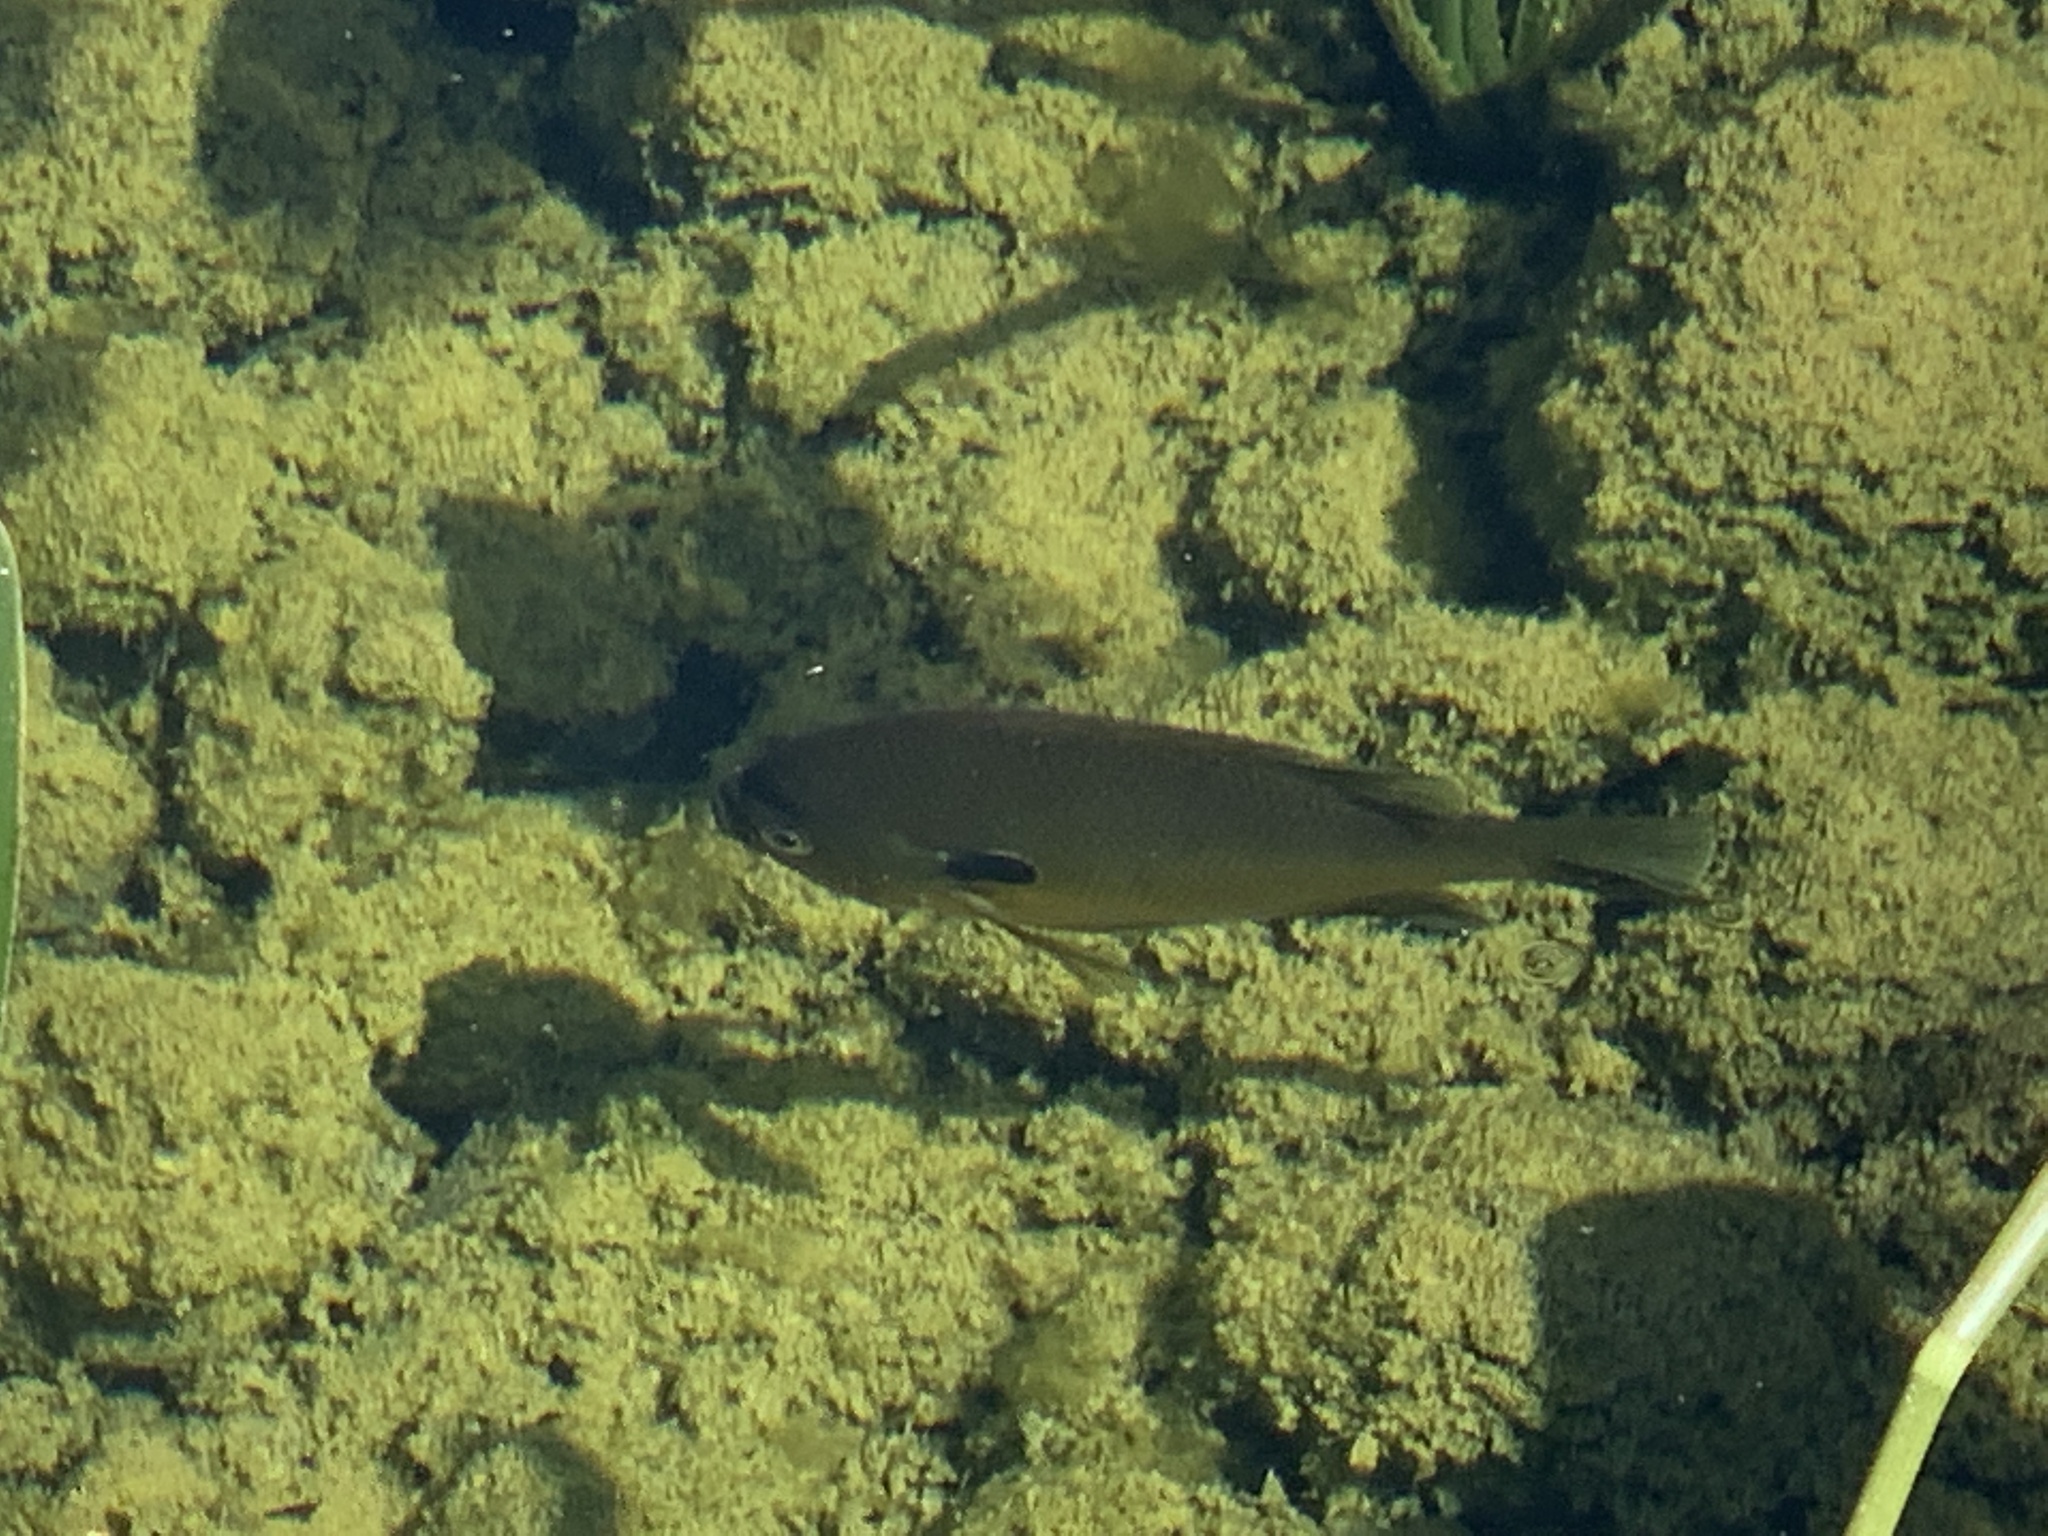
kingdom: Animalia
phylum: Chordata
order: Perciformes
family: Centrarchidae
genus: Lepomis
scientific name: Lepomis
